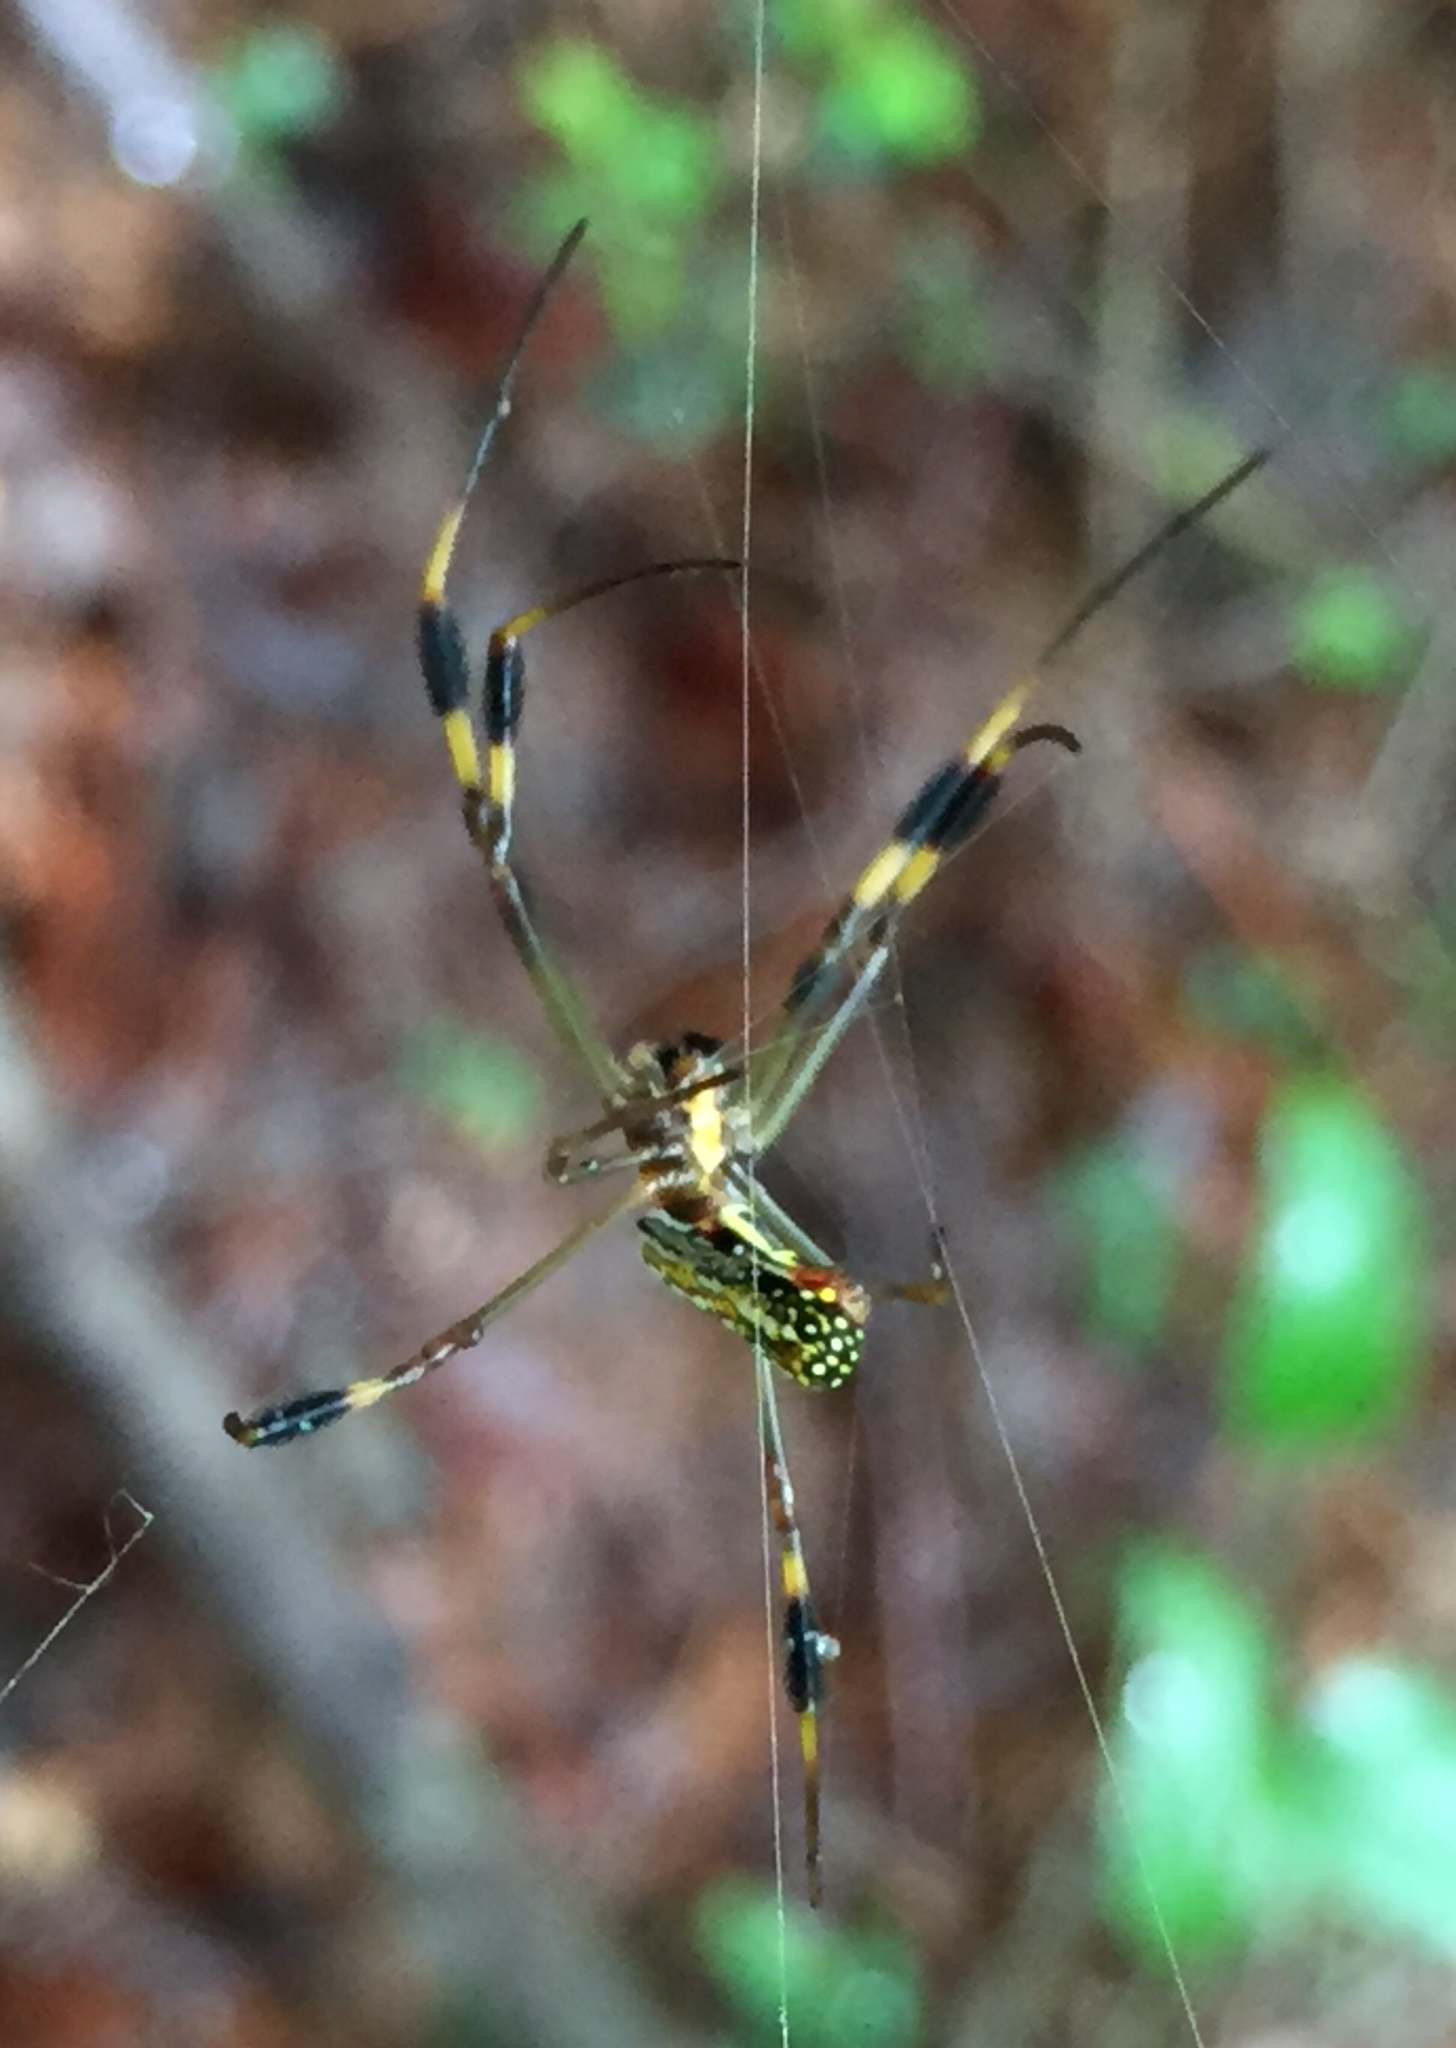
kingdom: Animalia
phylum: Arthropoda
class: Arachnida
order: Araneae
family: Araneidae
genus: Trichonephila
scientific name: Trichonephila clavipes
